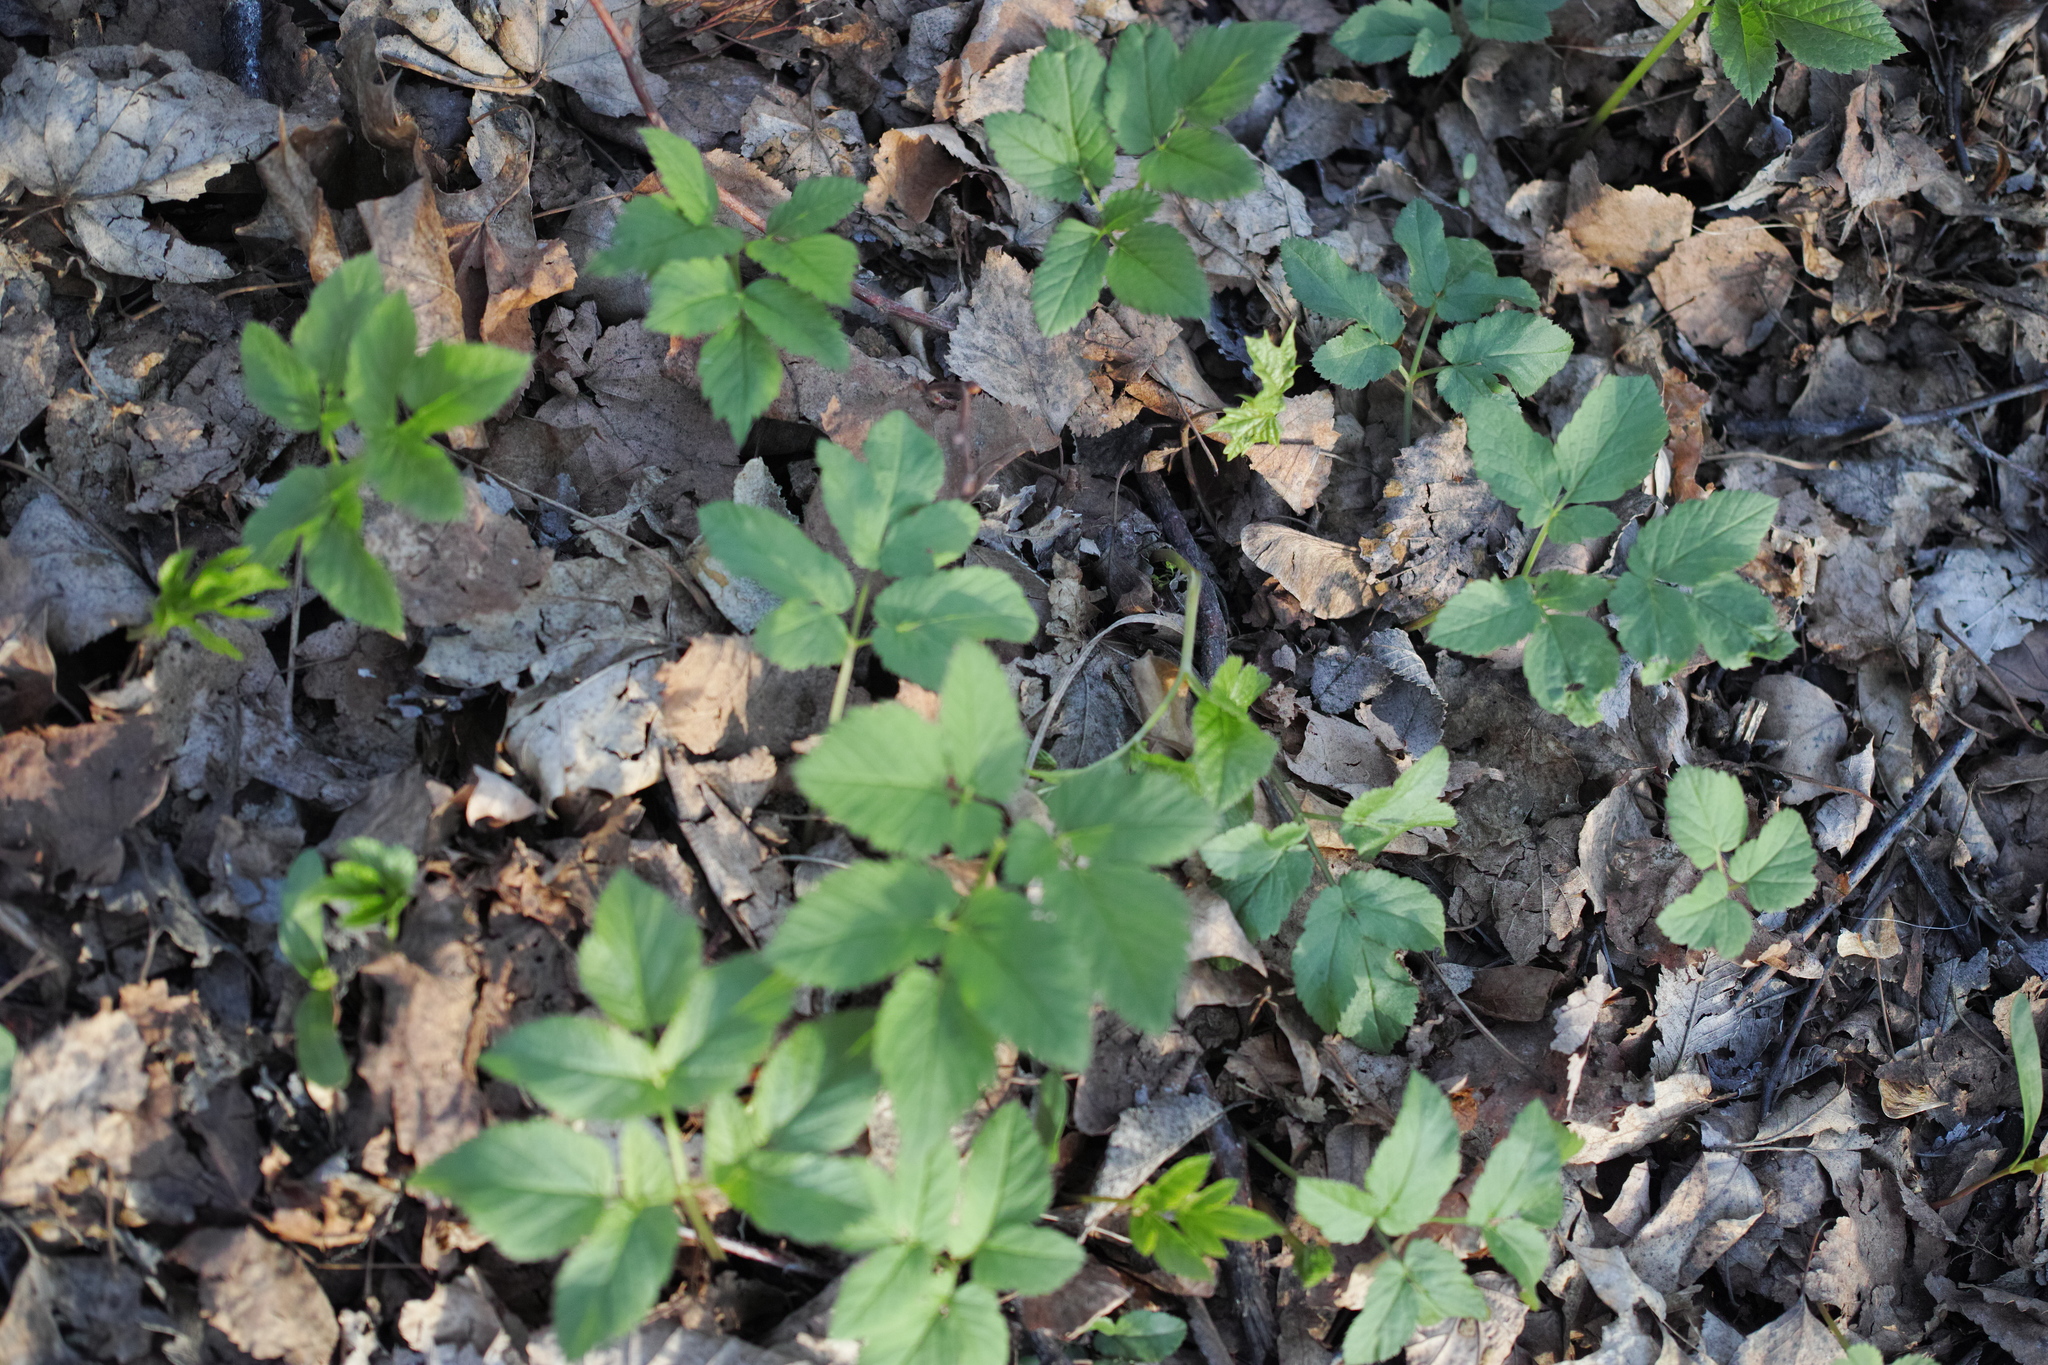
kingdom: Plantae
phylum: Tracheophyta
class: Magnoliopsida
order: Apiales
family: Apiaceae
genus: Aegopodium
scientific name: Aegopodium podagraria
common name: Ground-elder
